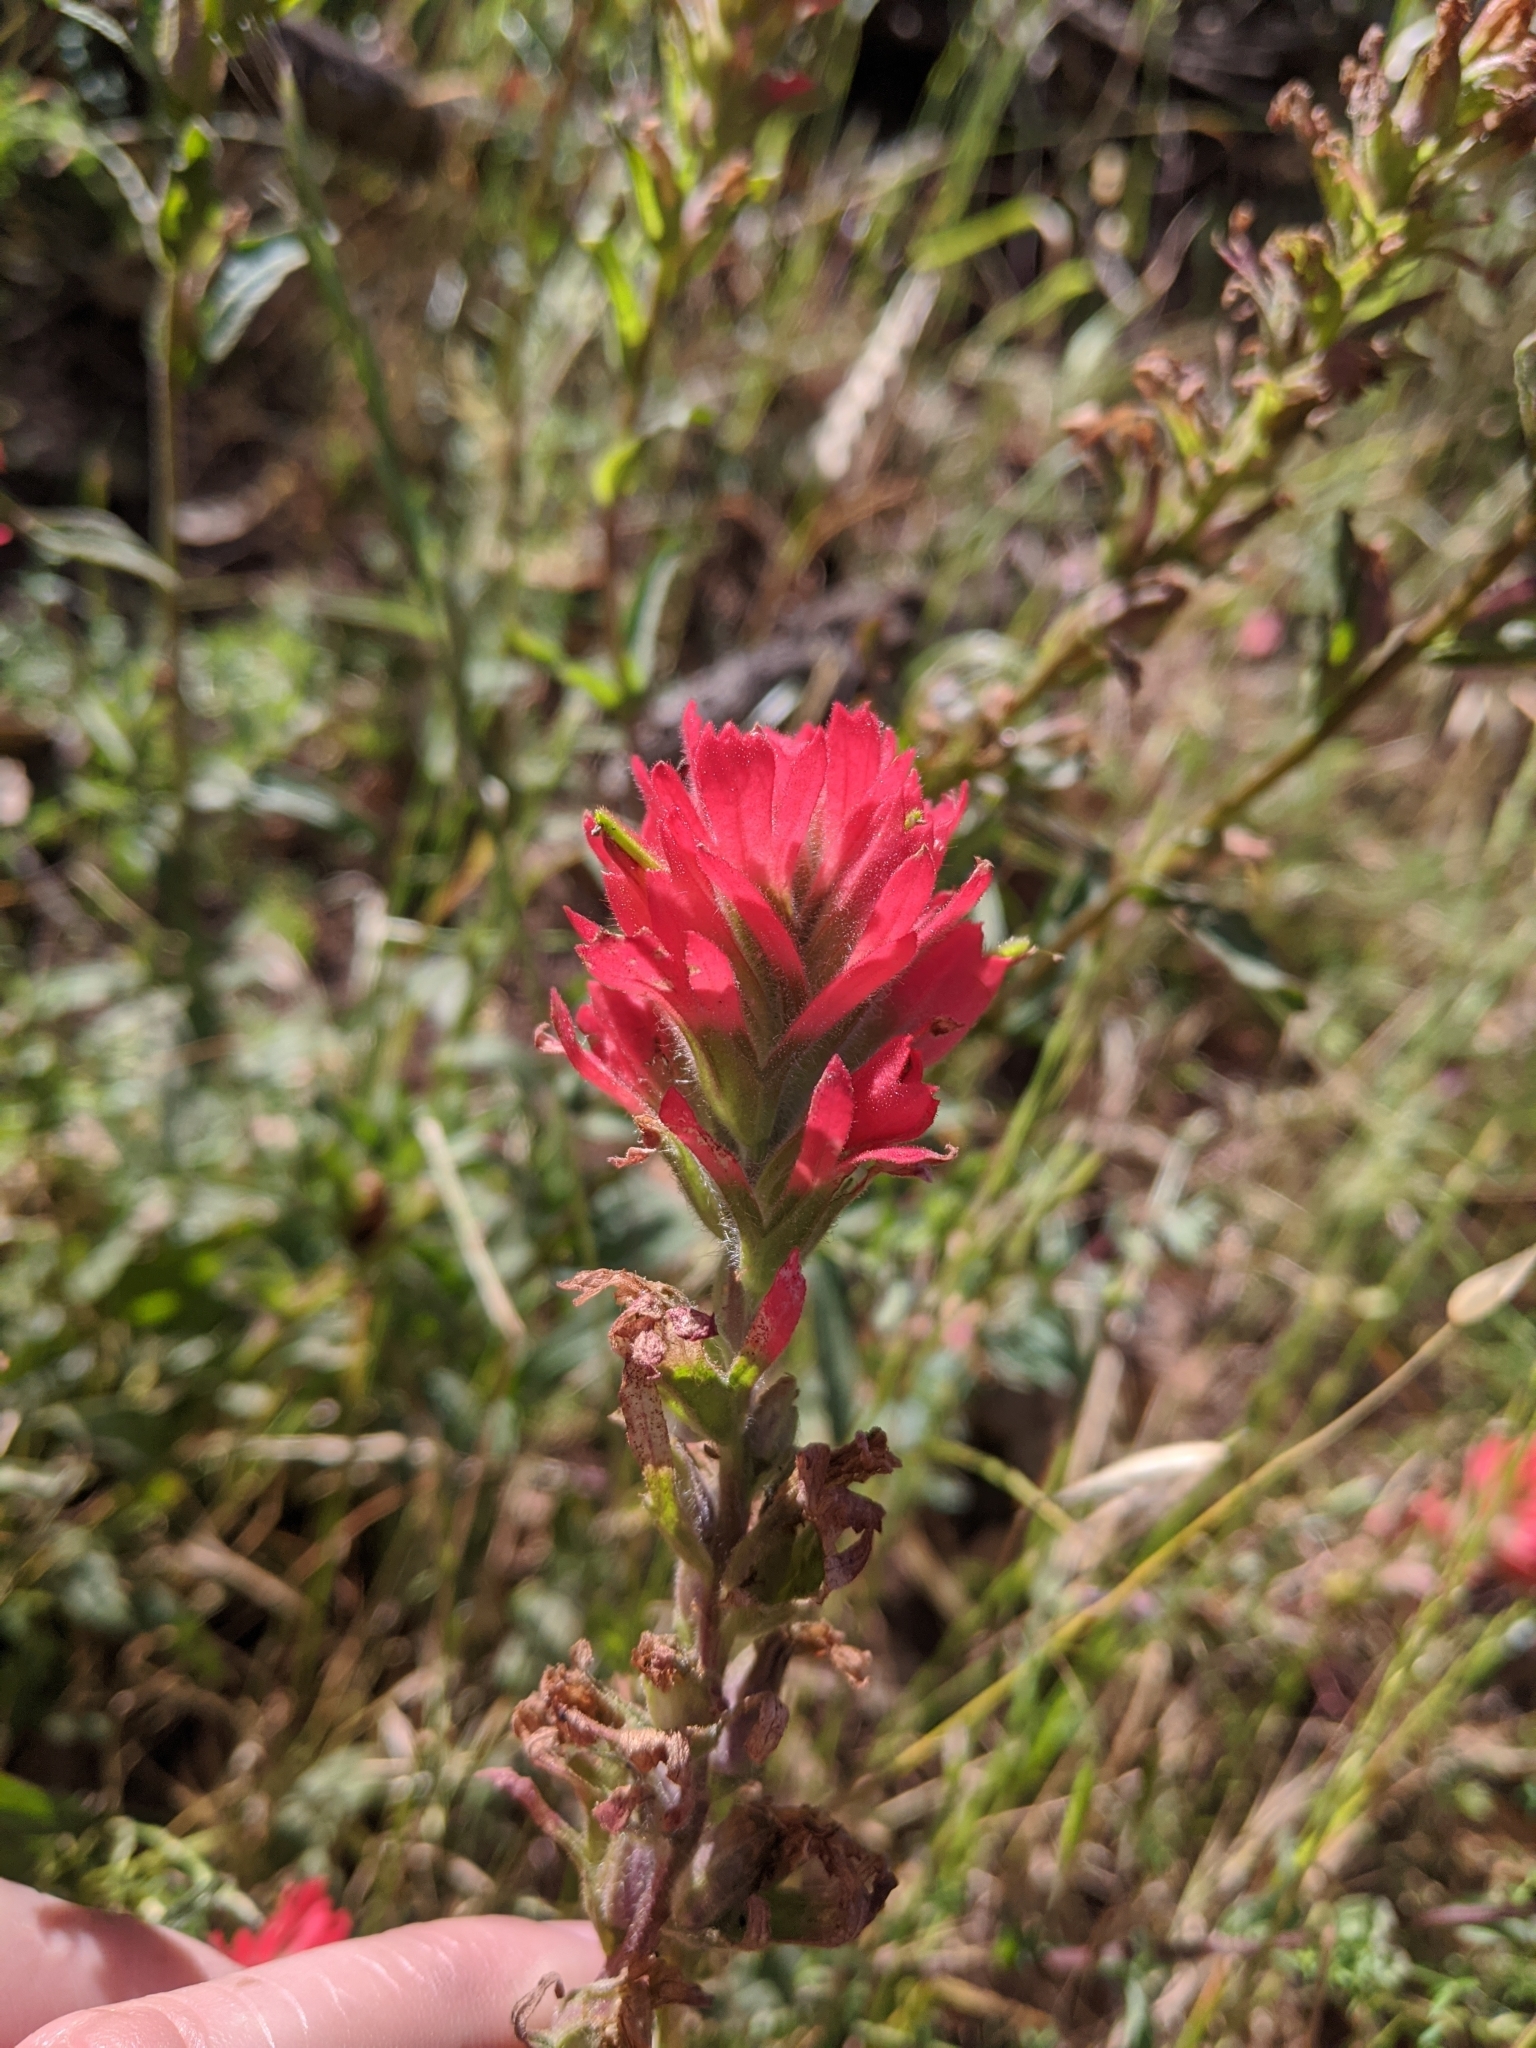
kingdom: Plantae
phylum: Tracheophyta
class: Magnoliopsida
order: Lamiales
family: Orobanchaceae
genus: Castilleja
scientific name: Castilleja affinis
